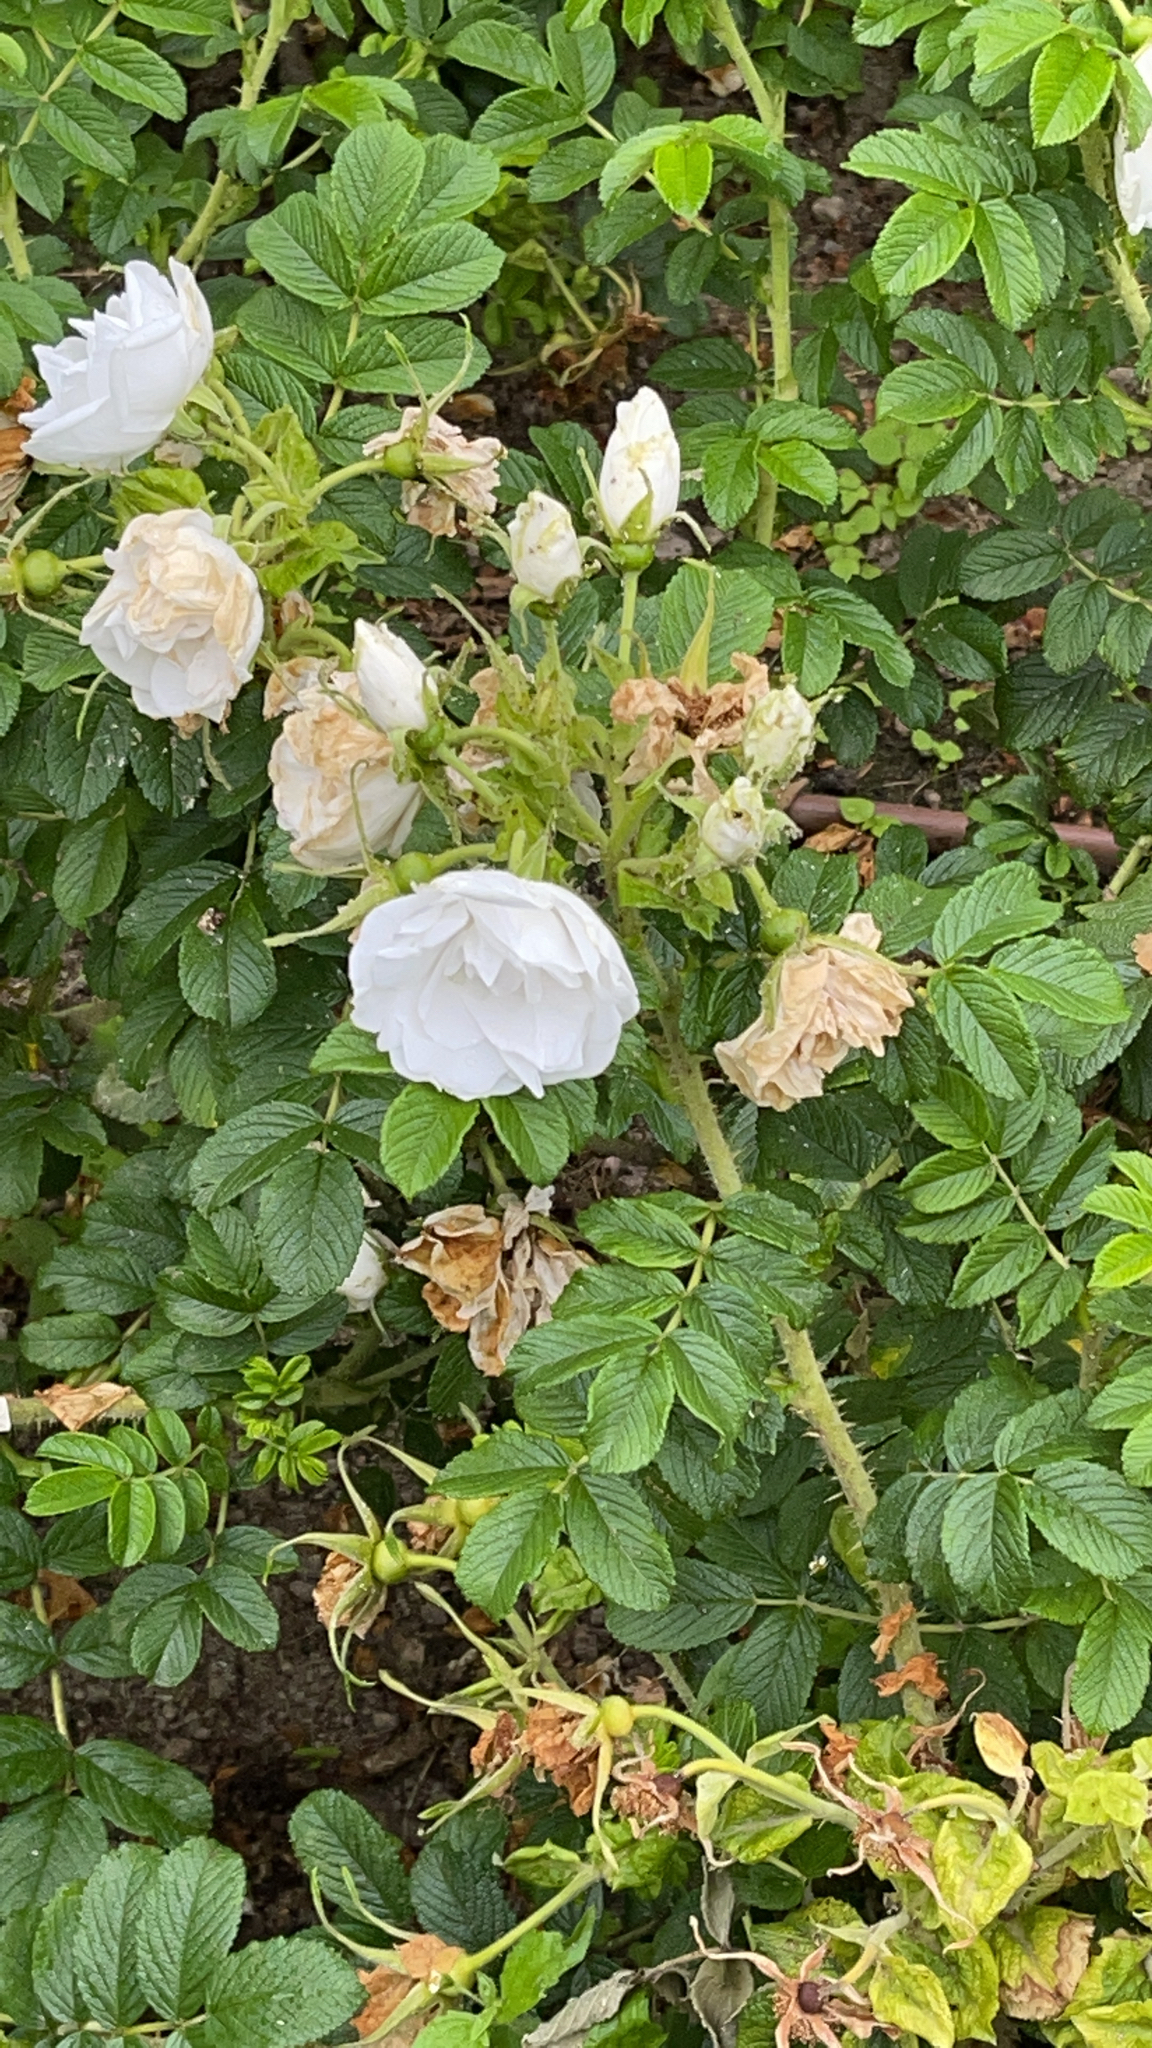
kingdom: Plantae
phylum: Tracheophyta
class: Magnoliopsida
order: Rosales
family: Rosaceae
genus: Rosa
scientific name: Rosa rugosa
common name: Japanese rose
